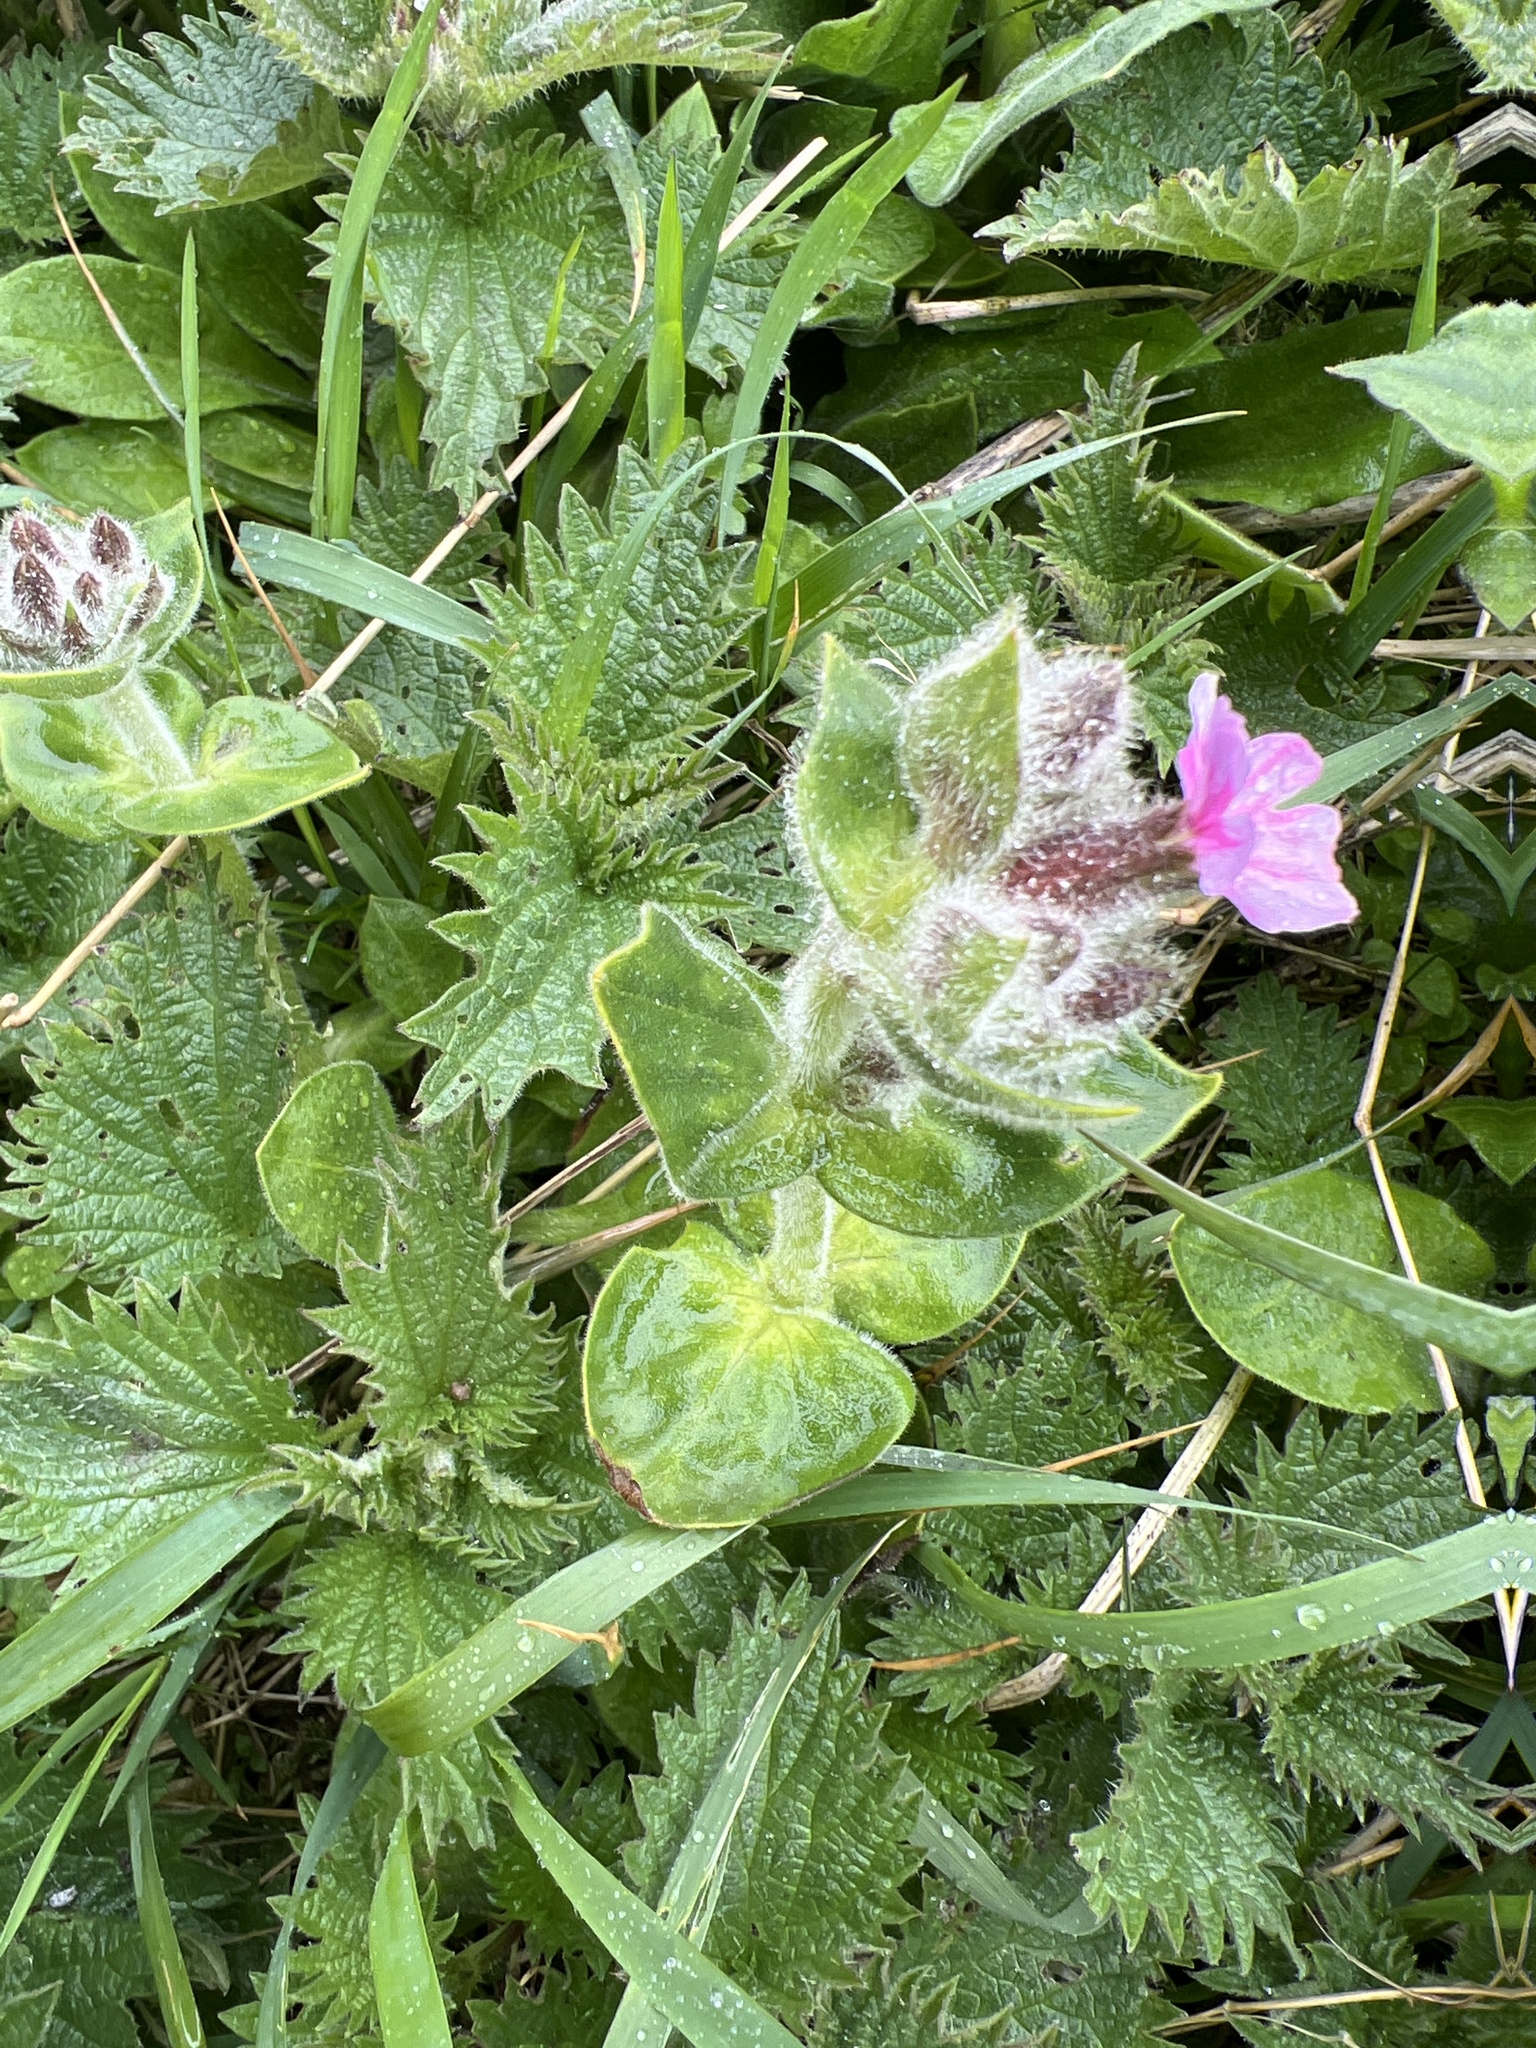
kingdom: Plantae
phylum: Tracheophyta
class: Magnoliopsida
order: Caryophyllales
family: Caryophyllaceae
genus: Silene
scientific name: Silene dioica
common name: Red campion
